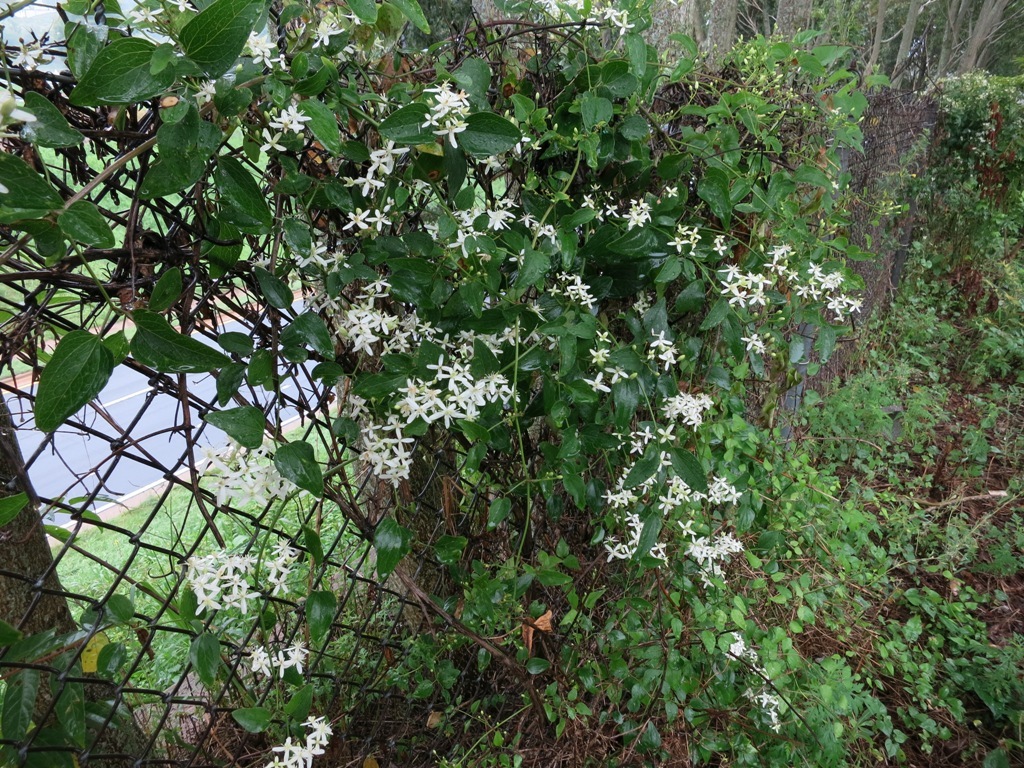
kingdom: Plantae
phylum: Tracheophyta
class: Magnoliopsida
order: Ranunculales
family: Ranunculaceae
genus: Clematis
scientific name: Clematis terniflora
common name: Sweet autumn clematis
